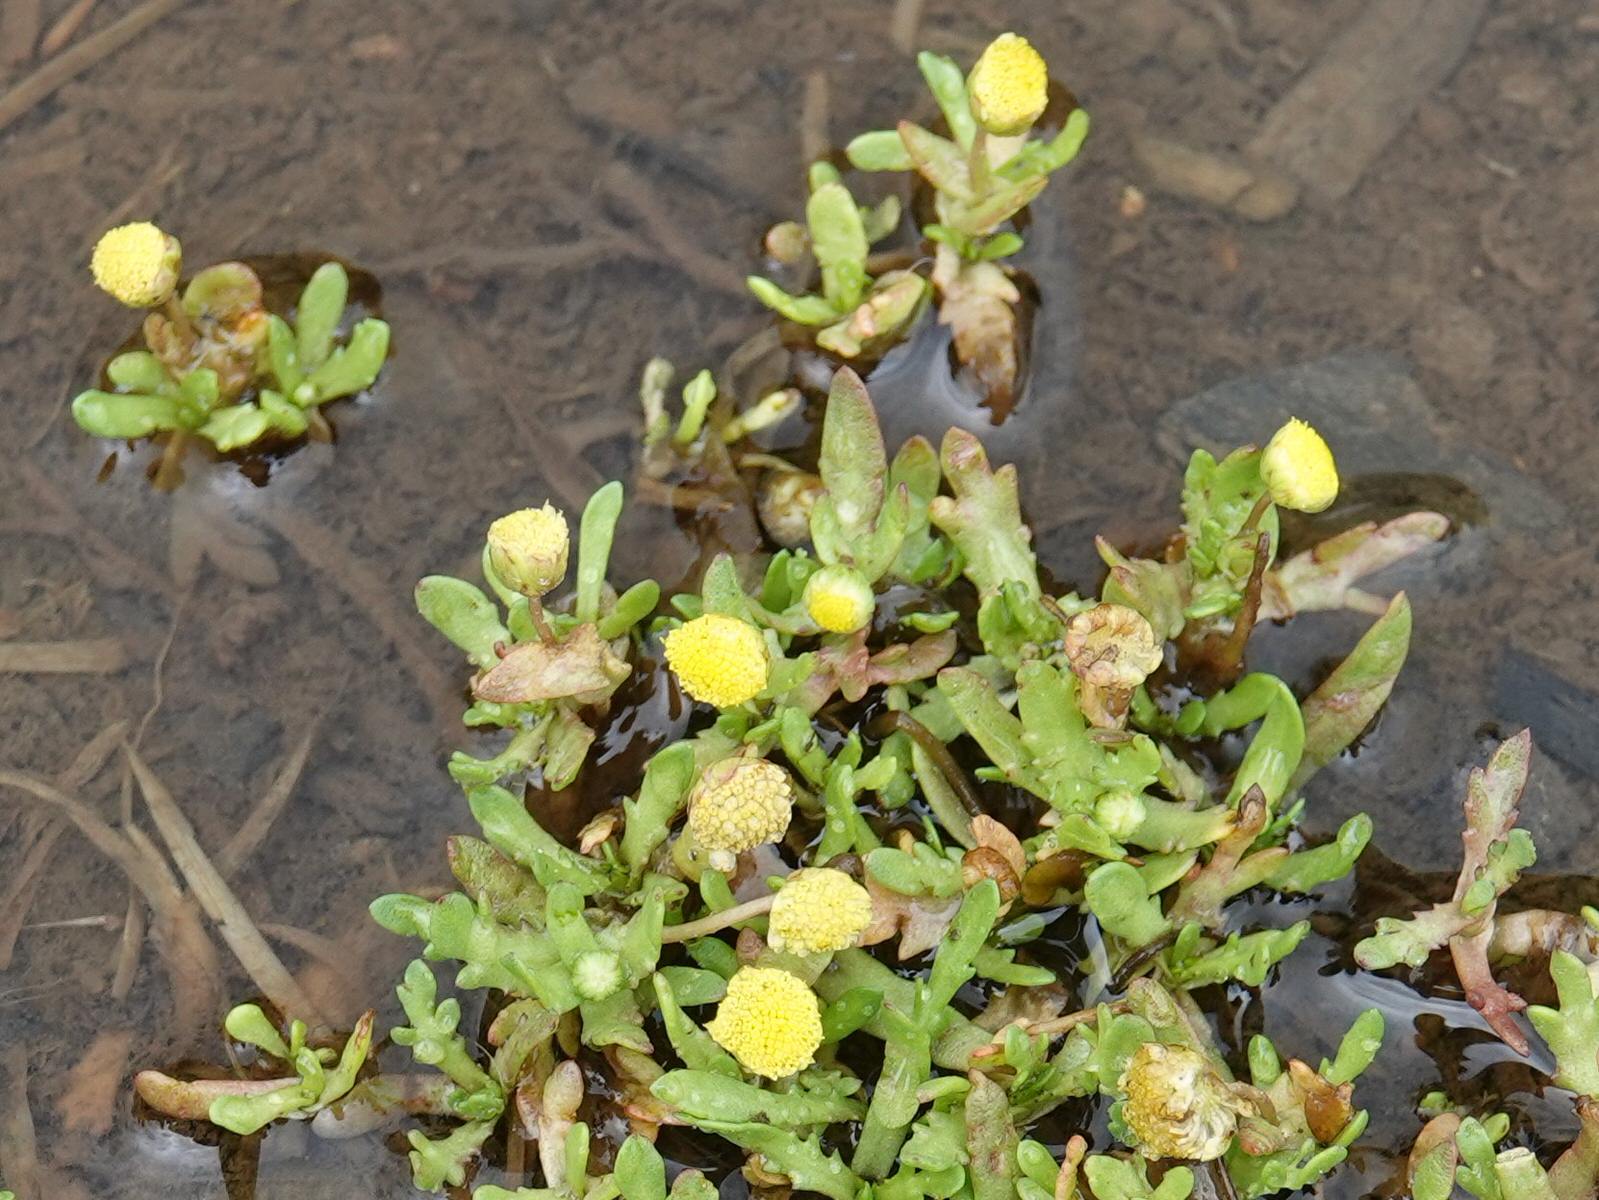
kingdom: Plantae
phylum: Tracheophyta
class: Magnoliopsida
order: Asterales
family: Asteraceae
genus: Cotula
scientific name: Cotula coronopifolia
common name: Buttonweed
